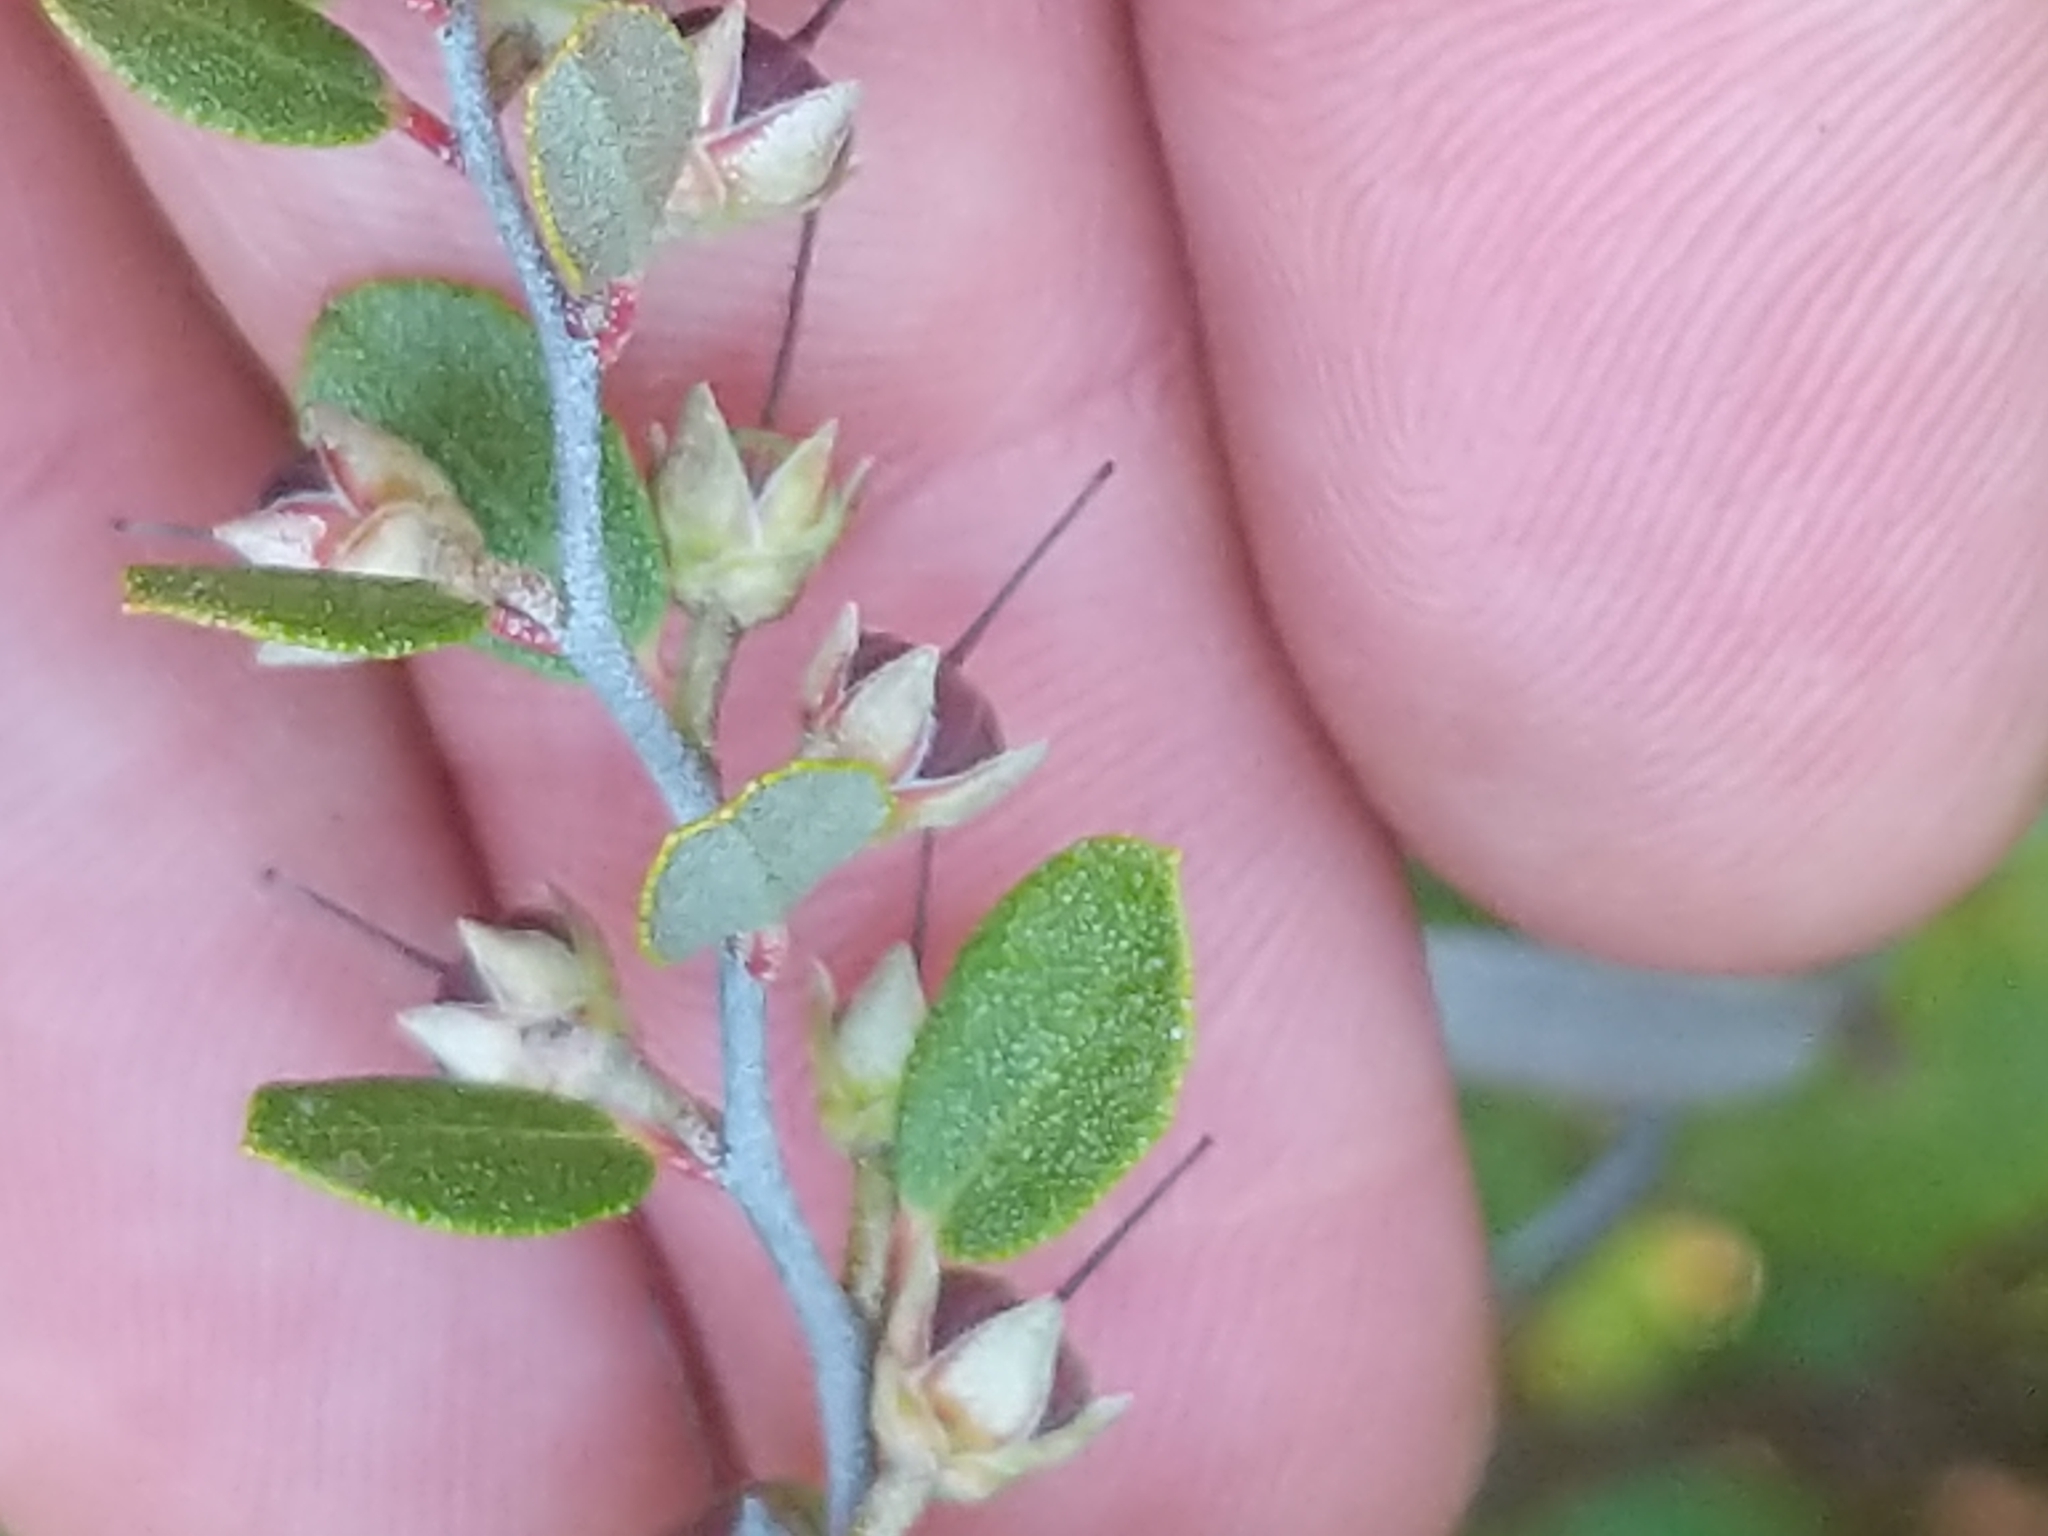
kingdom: Plantae
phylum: Tracheophyta
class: Magnoliopsida
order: Ericales
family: Ericaceae
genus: Chamaedaphne
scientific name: Chamaedaphne calyculata
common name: Leatherleaf
